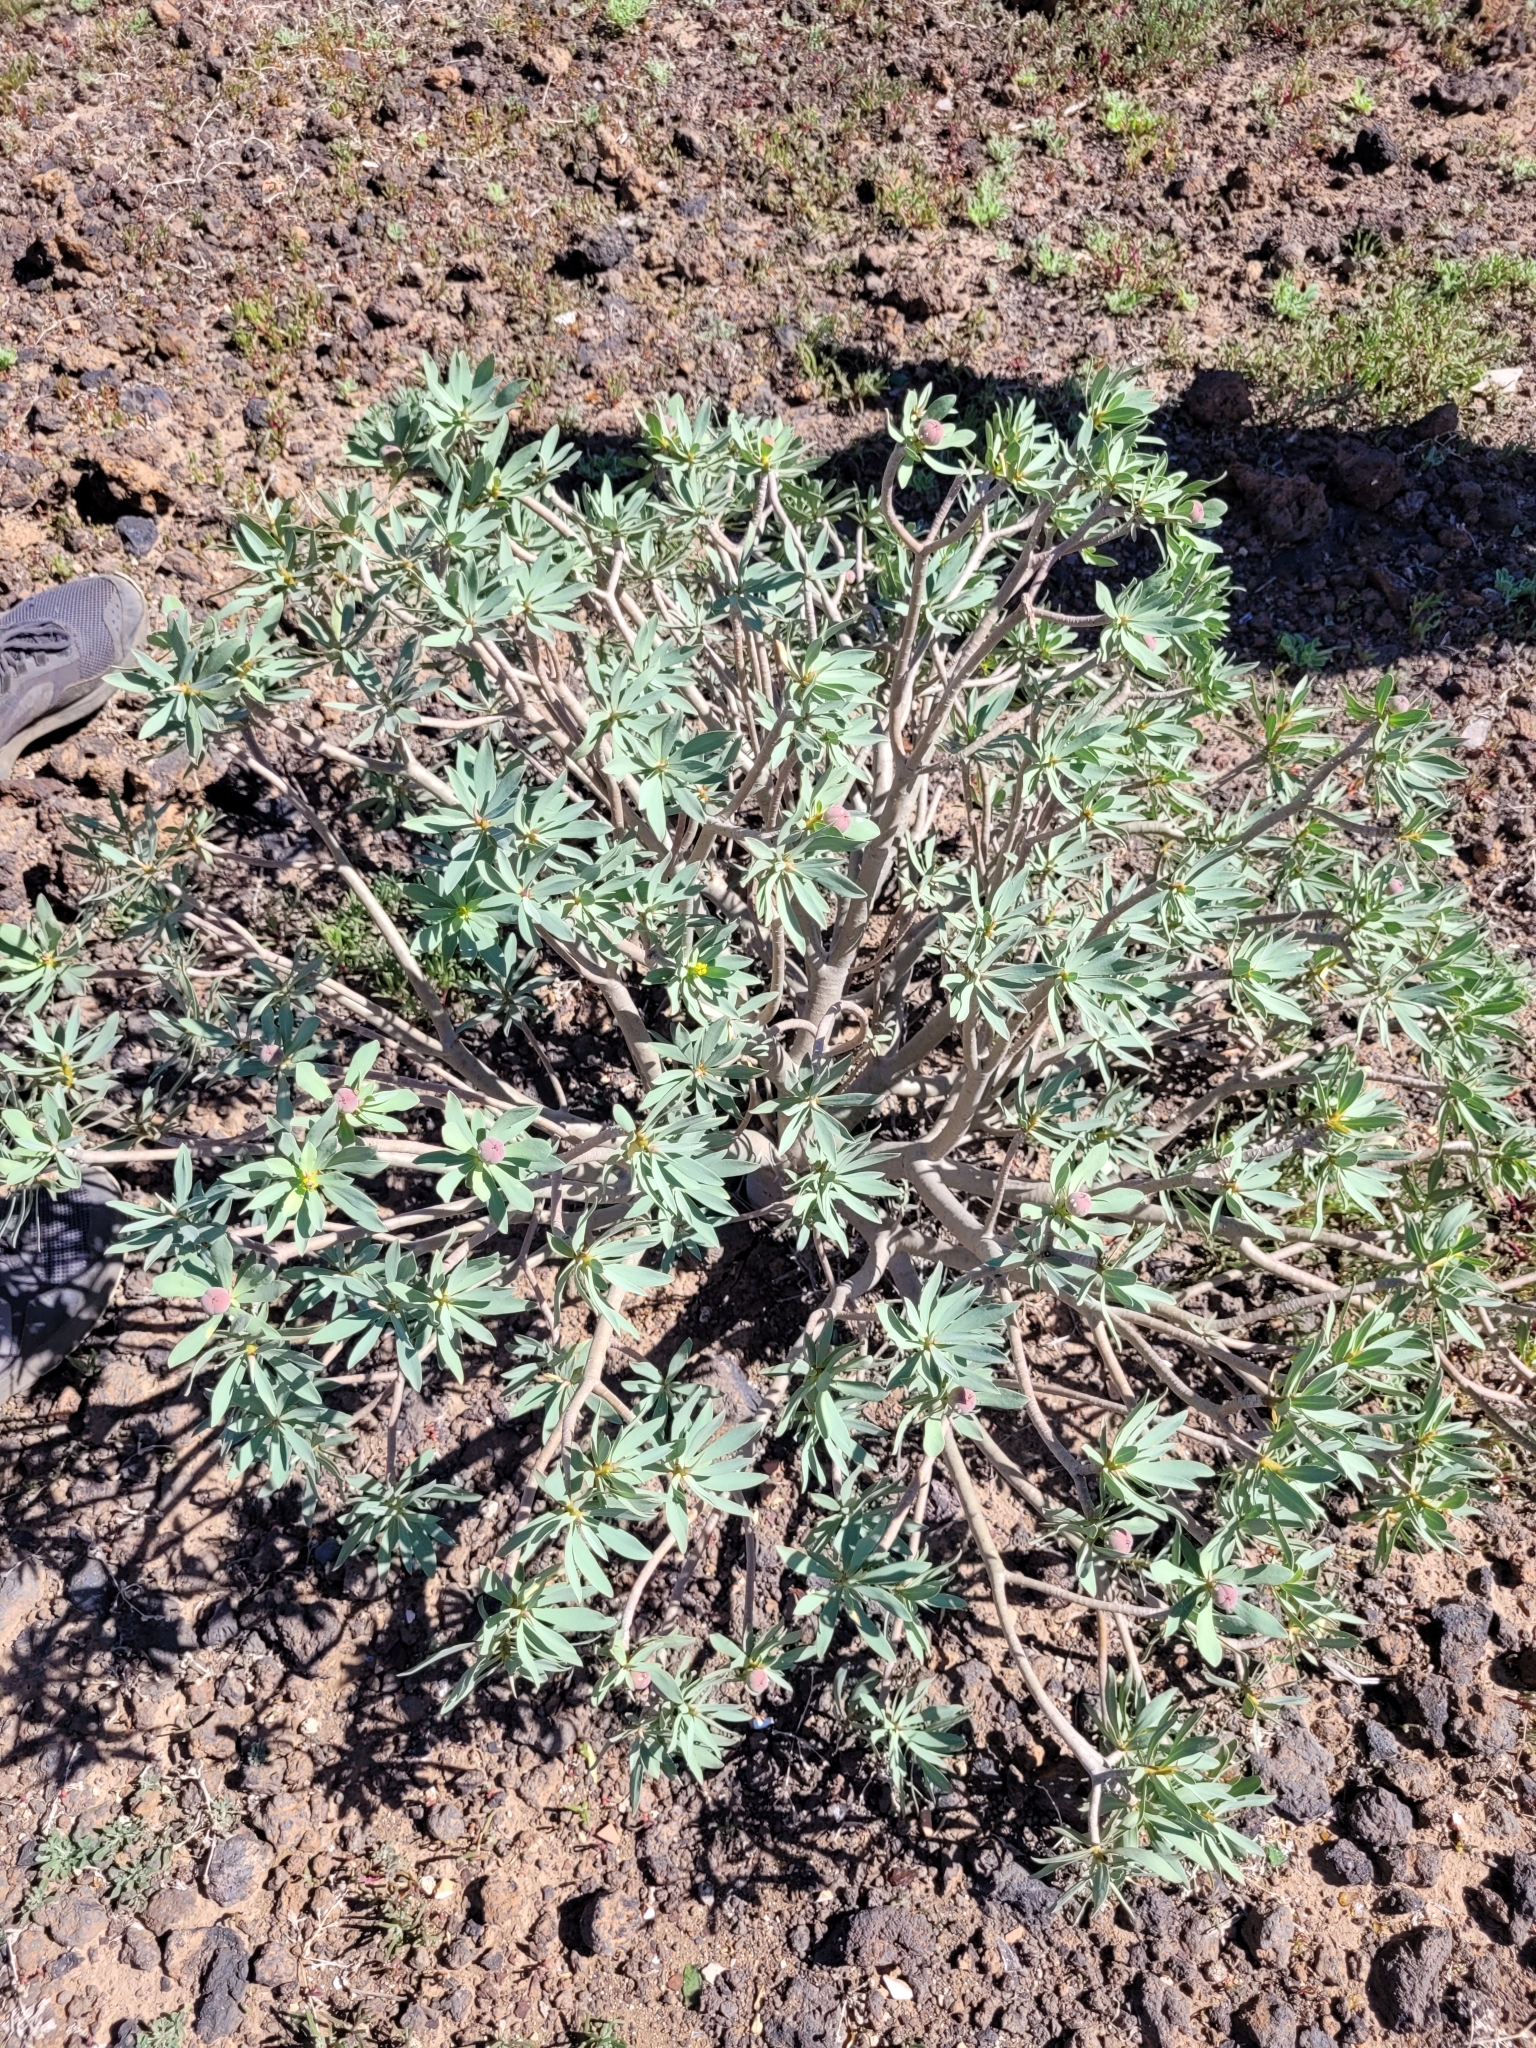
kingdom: Plantae
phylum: Tracheophyta
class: Magnoliopsida
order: Malpighiales
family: Euphorbiaceae
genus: Euphorbia
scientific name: Euphorbia balsamifera
